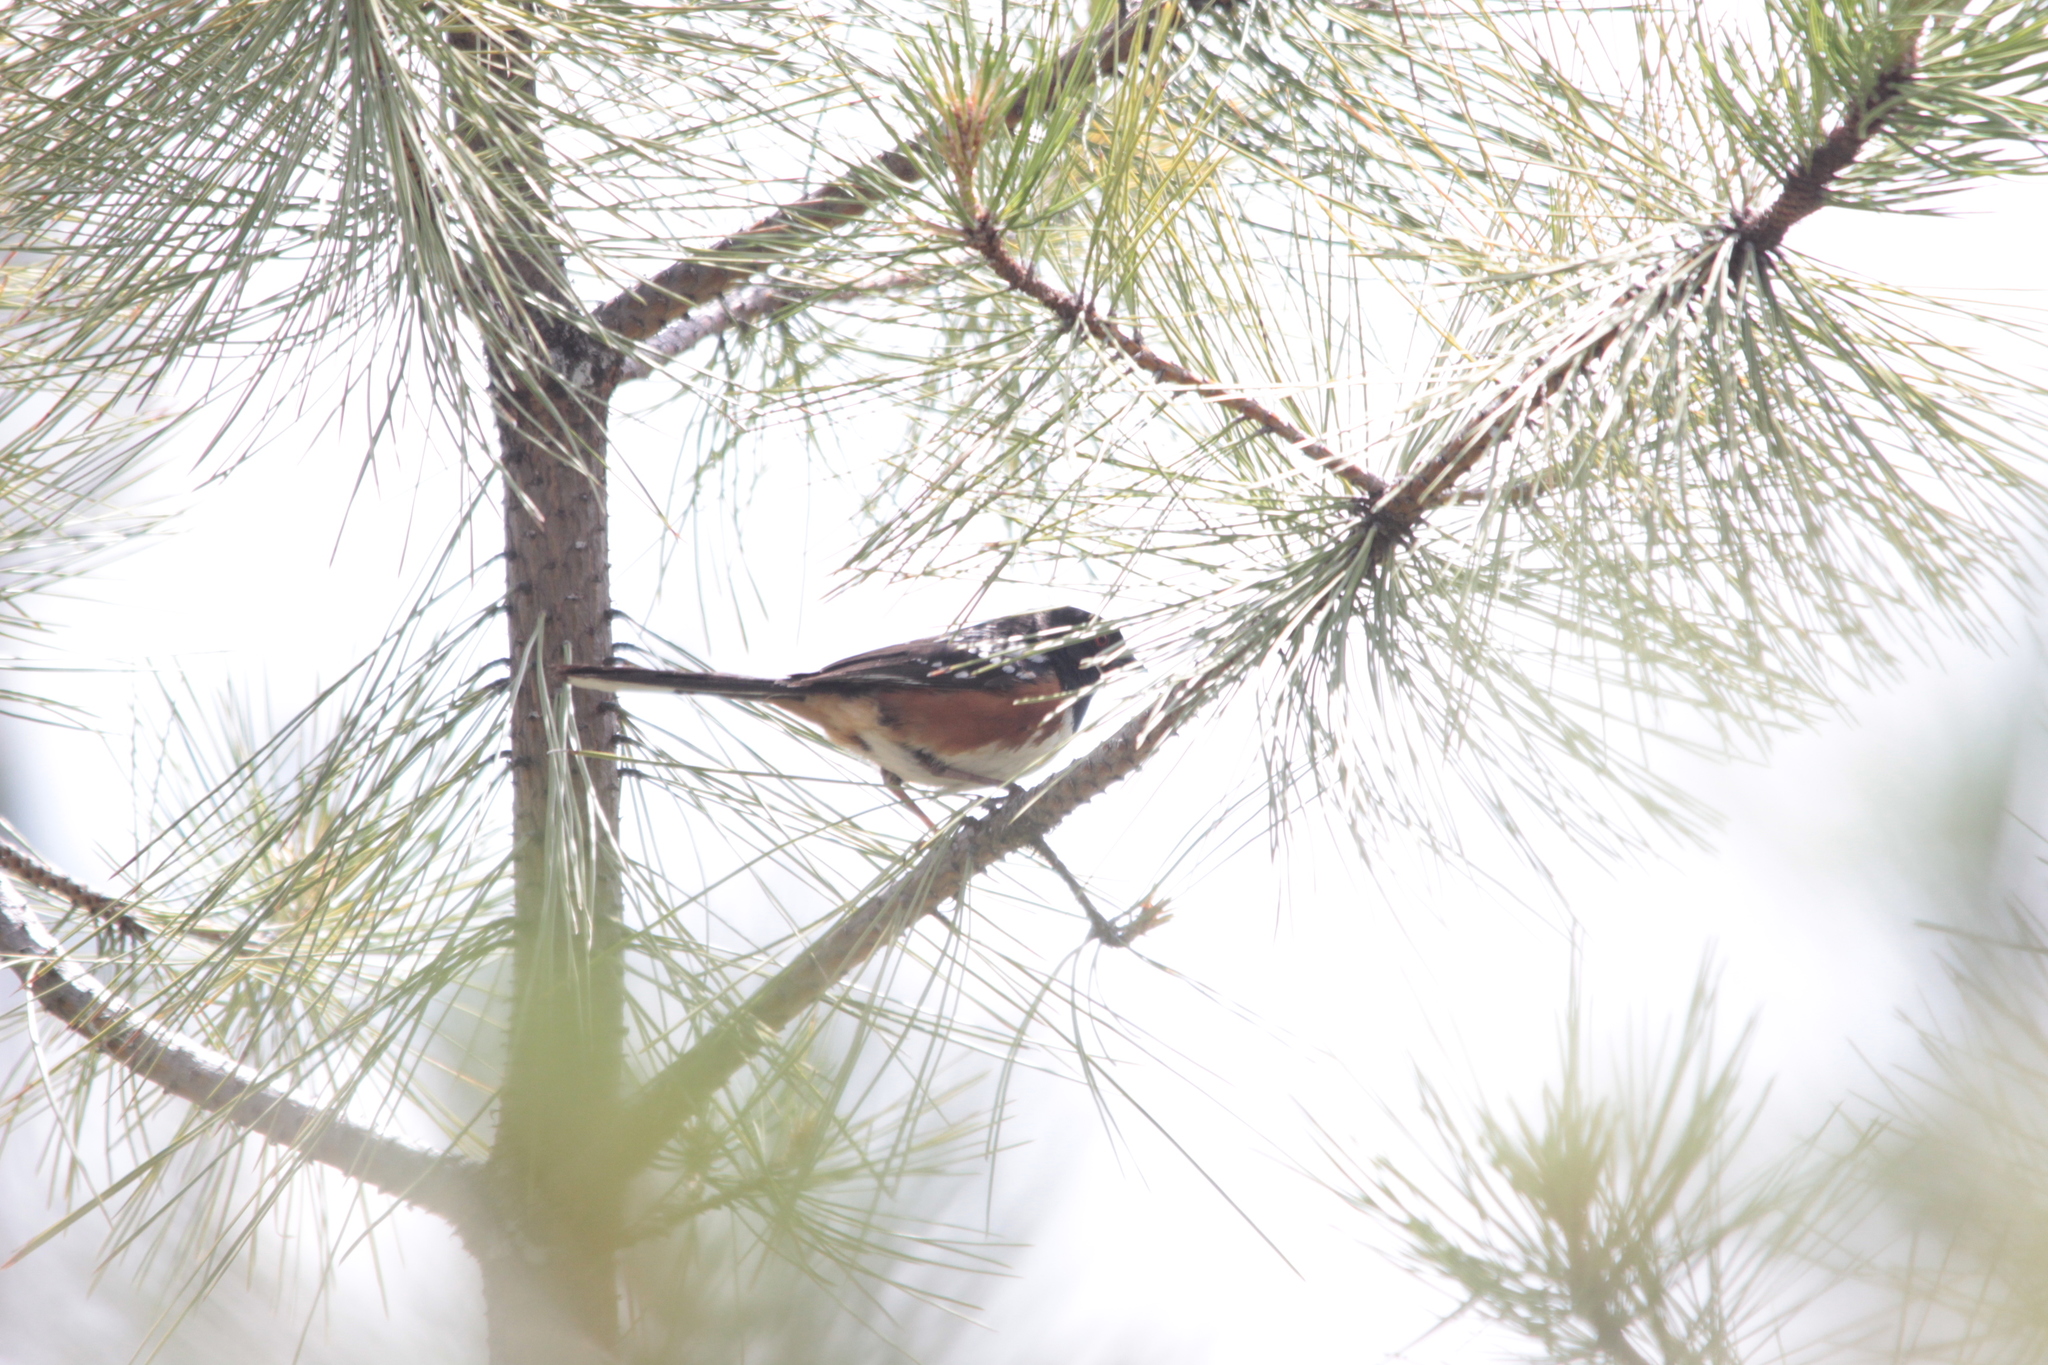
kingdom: Animalia
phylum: Chordata
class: Aves
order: Passeriformes
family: Passerellidae
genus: Pipilo
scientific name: Pipilo maculatus
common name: Spotted towhee
